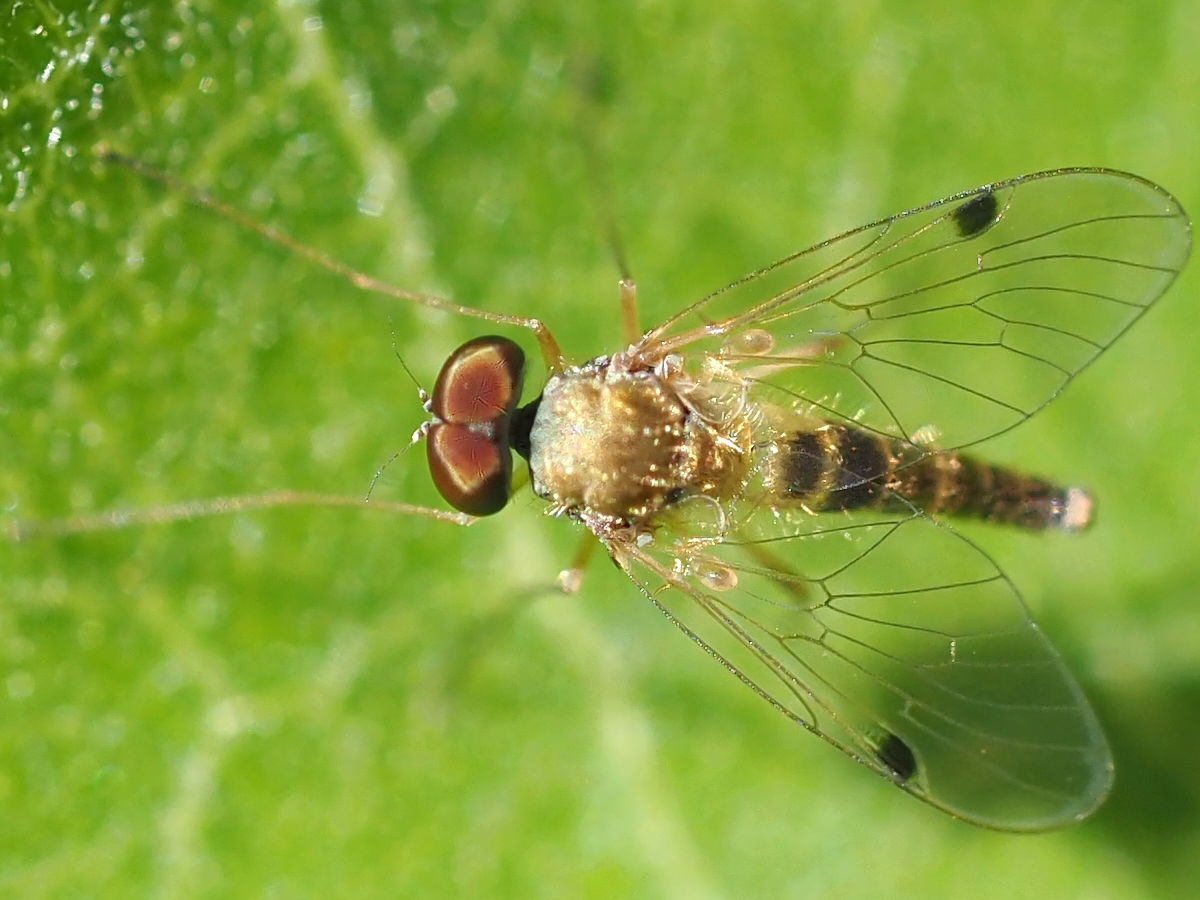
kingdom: Animalia
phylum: Arthropoda
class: Insecta
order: Diptera
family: Rhagionidae
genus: Chrysopilus
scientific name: Chrysopilus modestus
